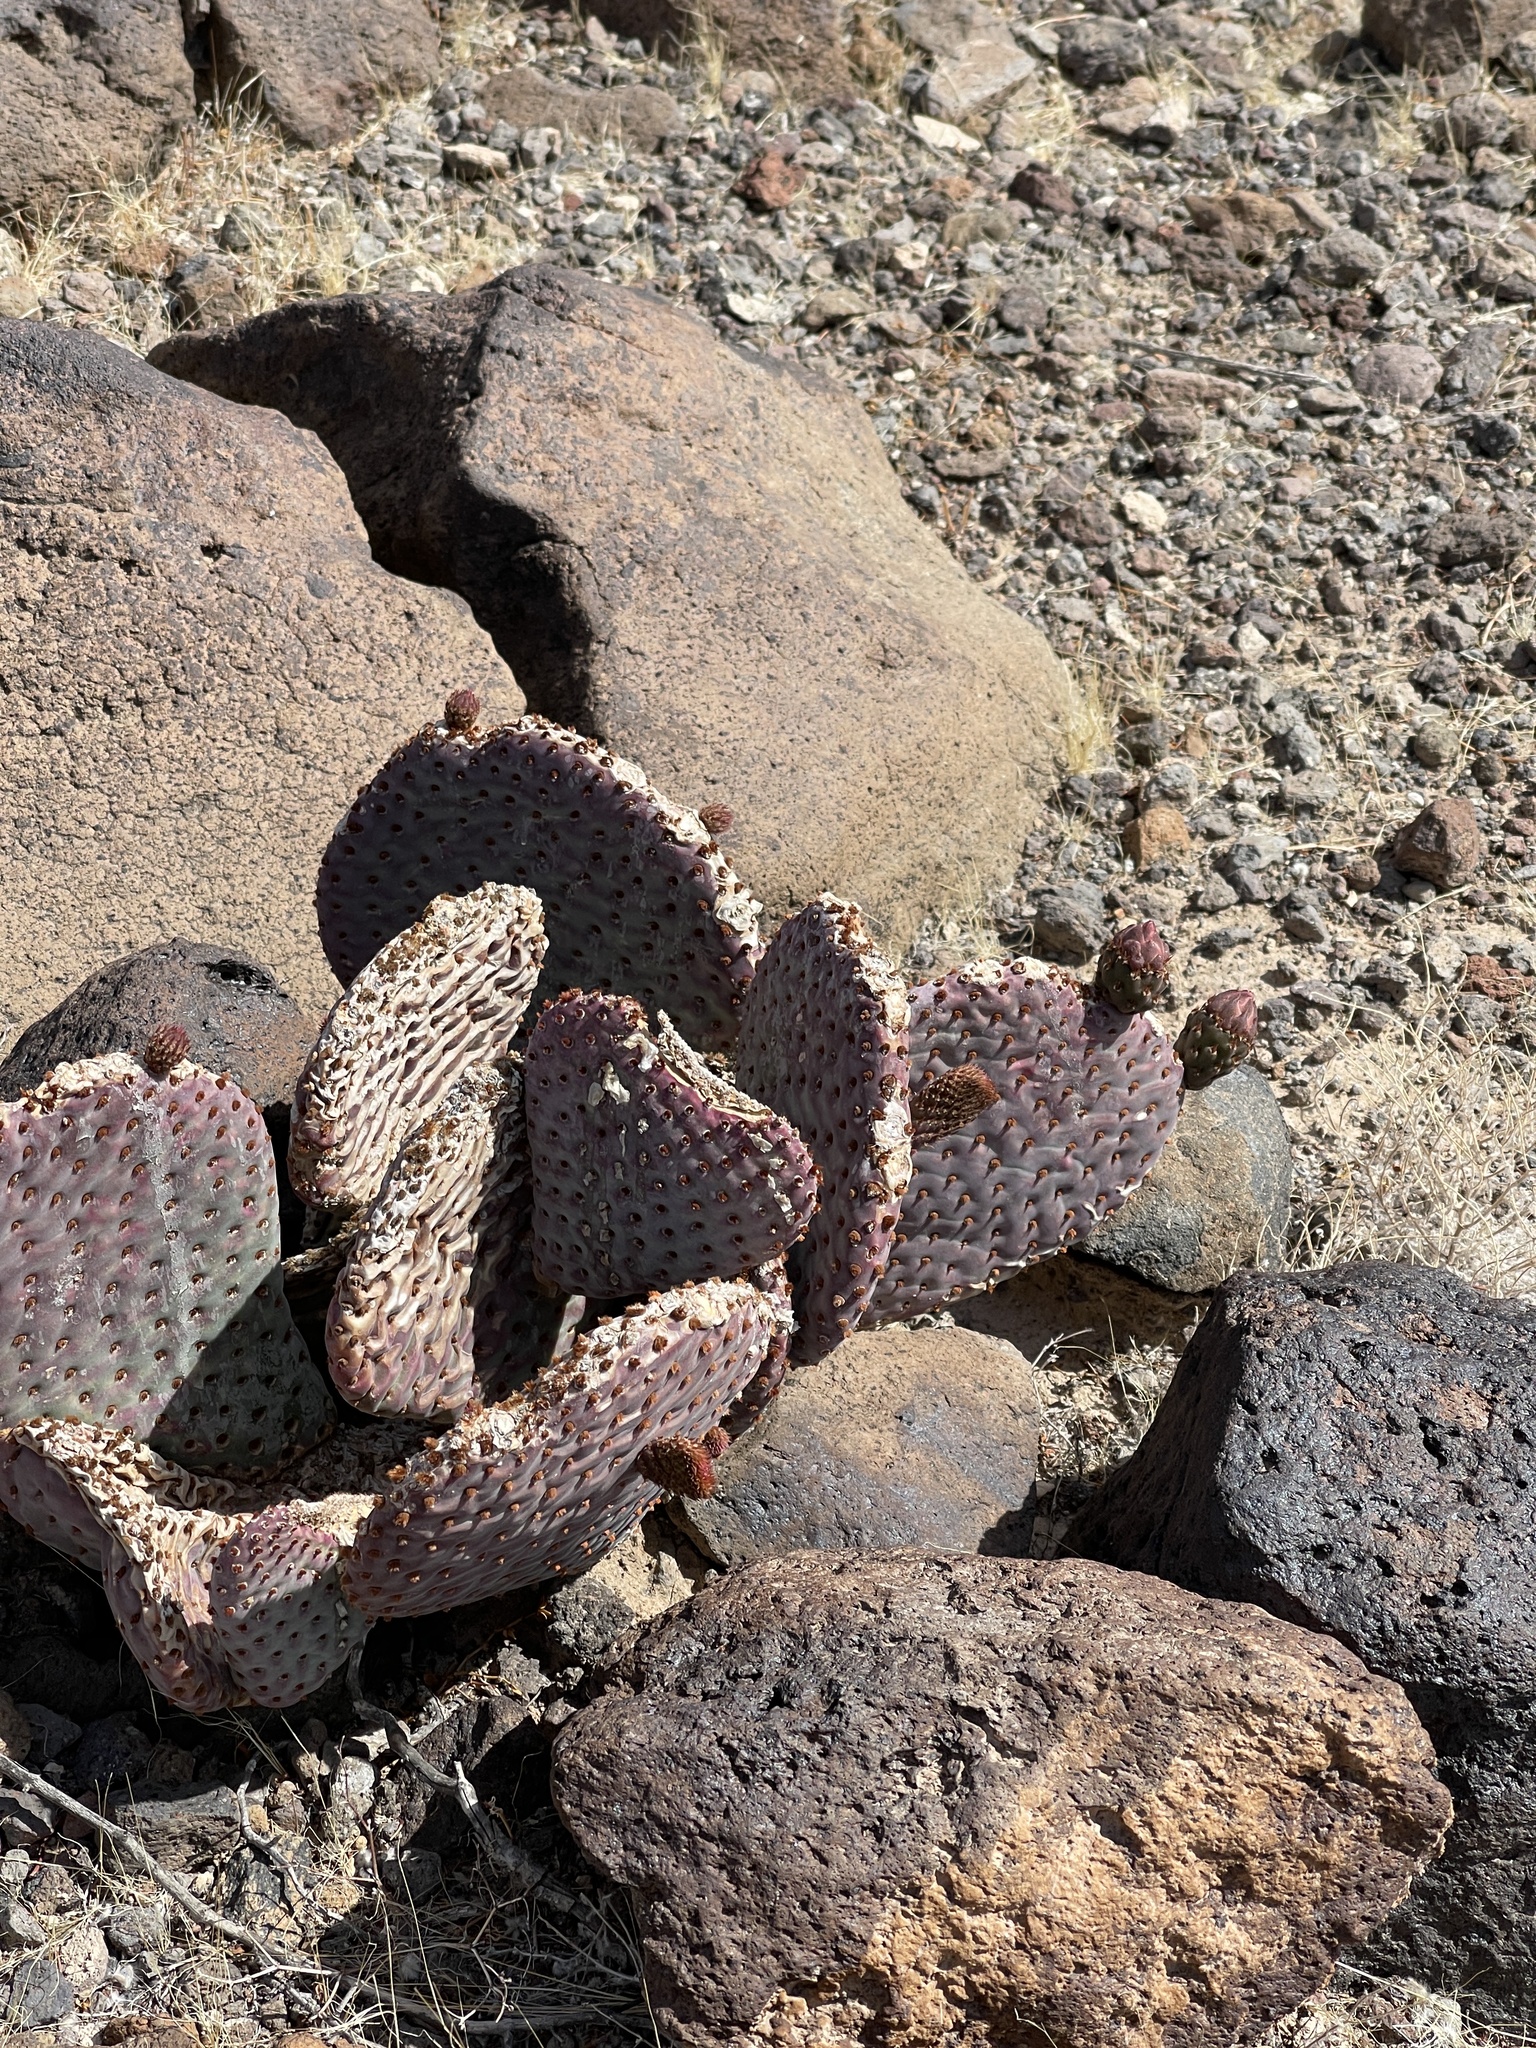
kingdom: Plantae
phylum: Tracheophyta
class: Magnoliopsida
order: Caryophyllales
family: Cactaceae
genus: Opuntia
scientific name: Opuntia basilaris
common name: Beavertail prickly-pear
